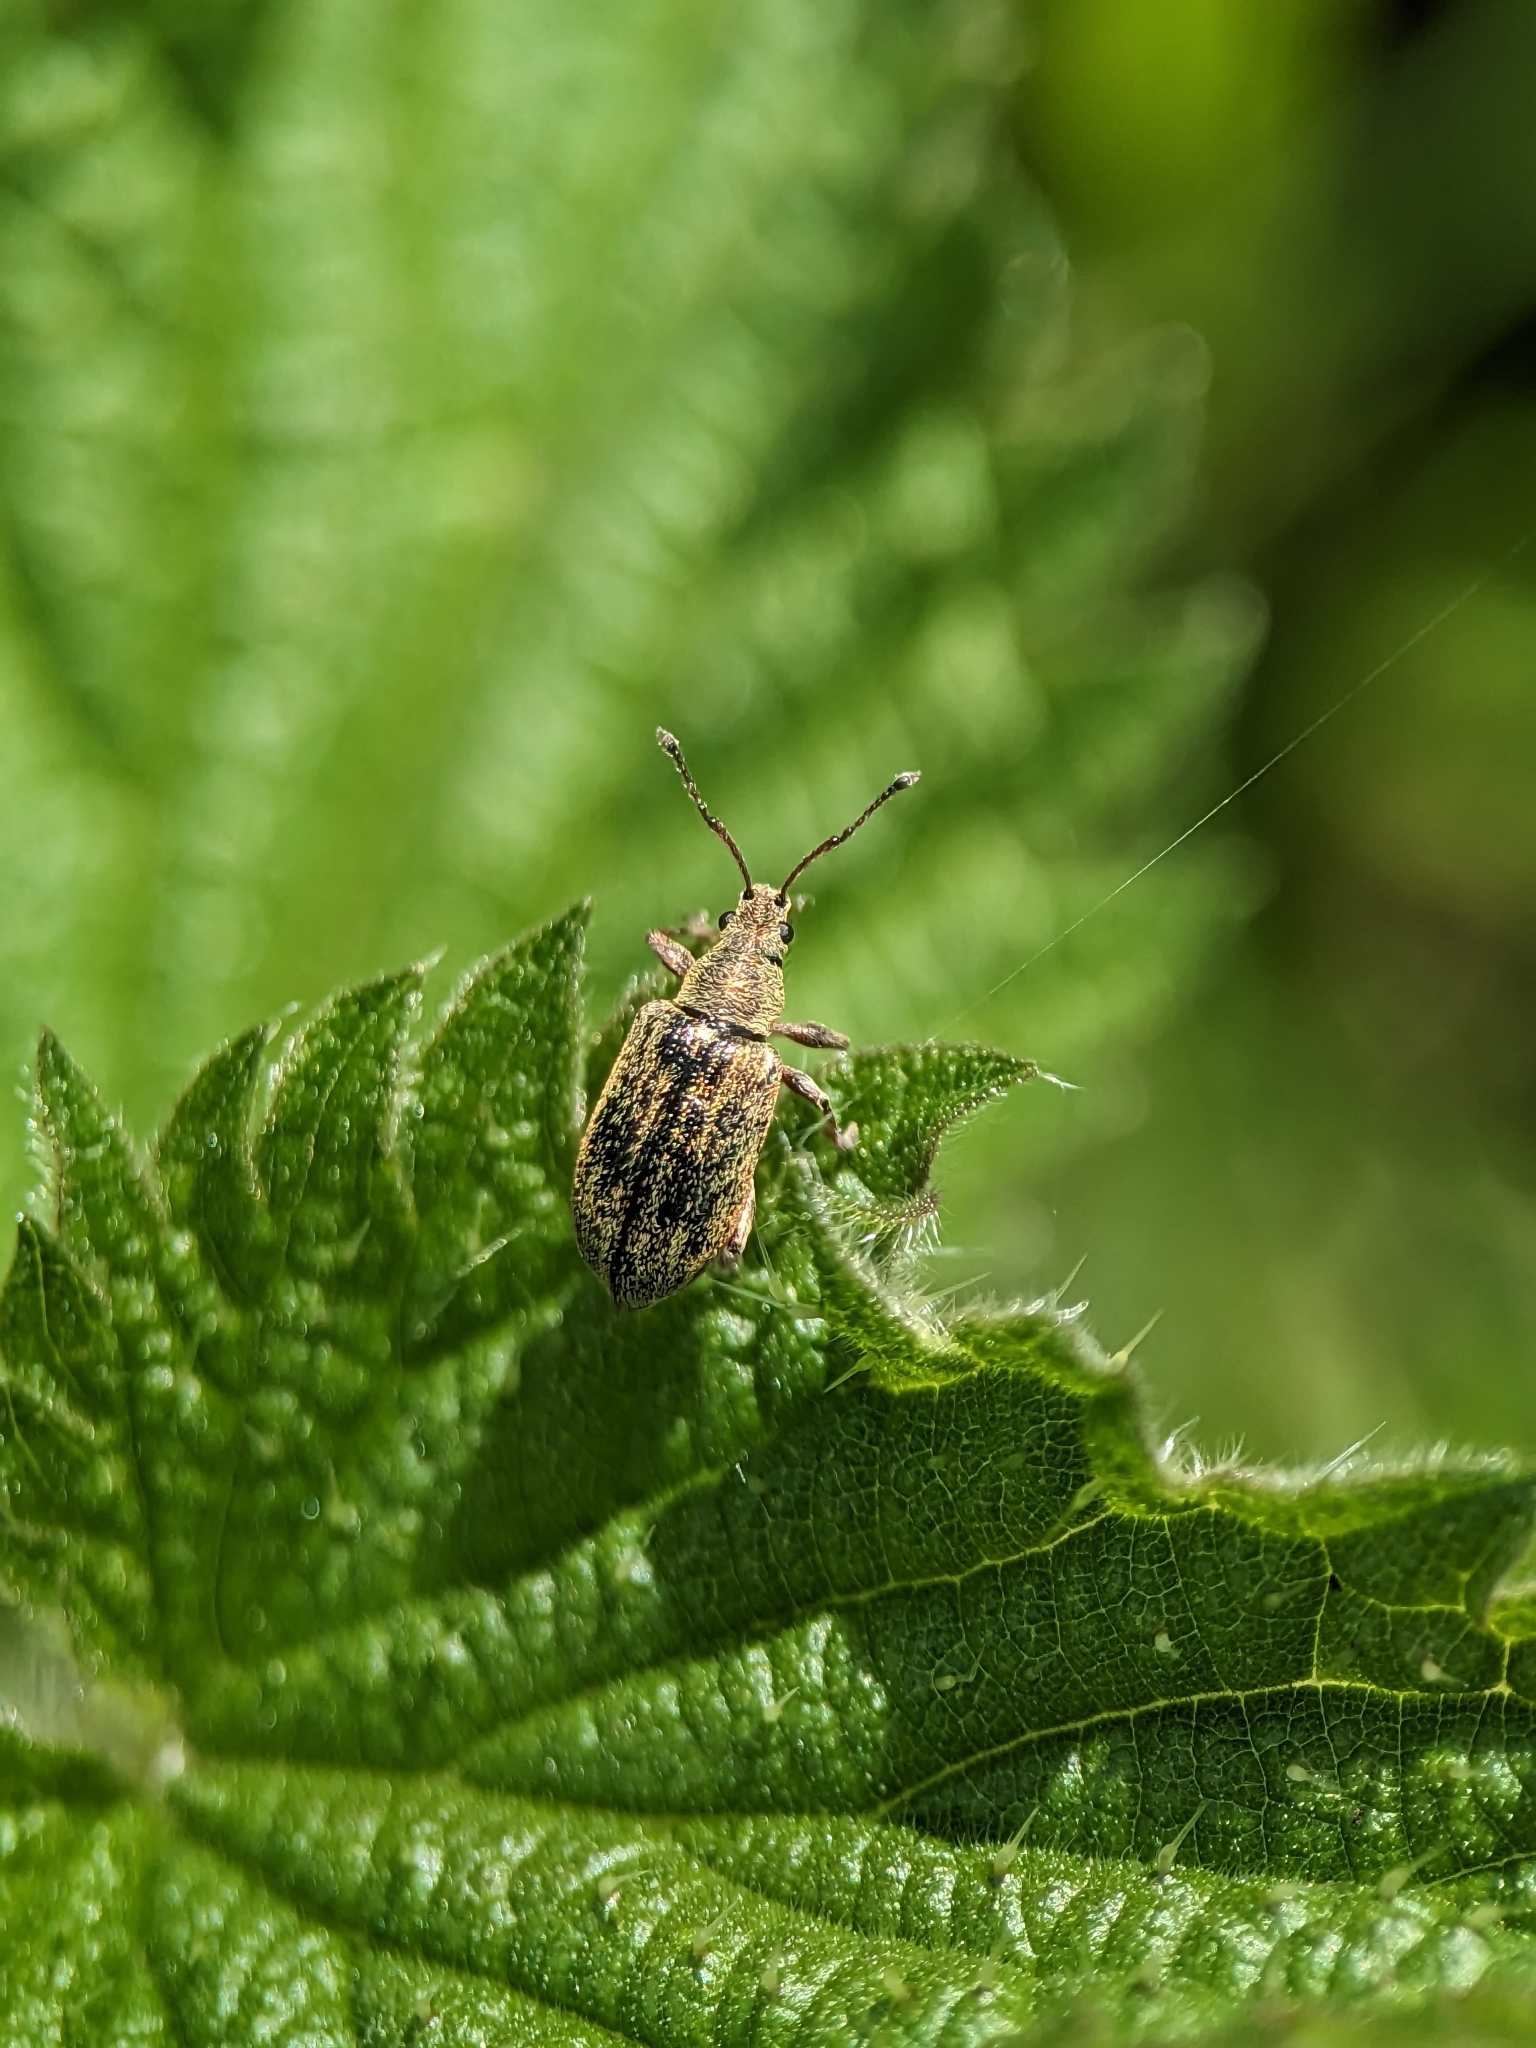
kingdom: Animalia
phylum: Arthropoda
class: Insecta
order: Coleoptera
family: Curculionidae
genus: Phyllobius
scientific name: Phyllobius pyri
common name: Common leaf weevil
